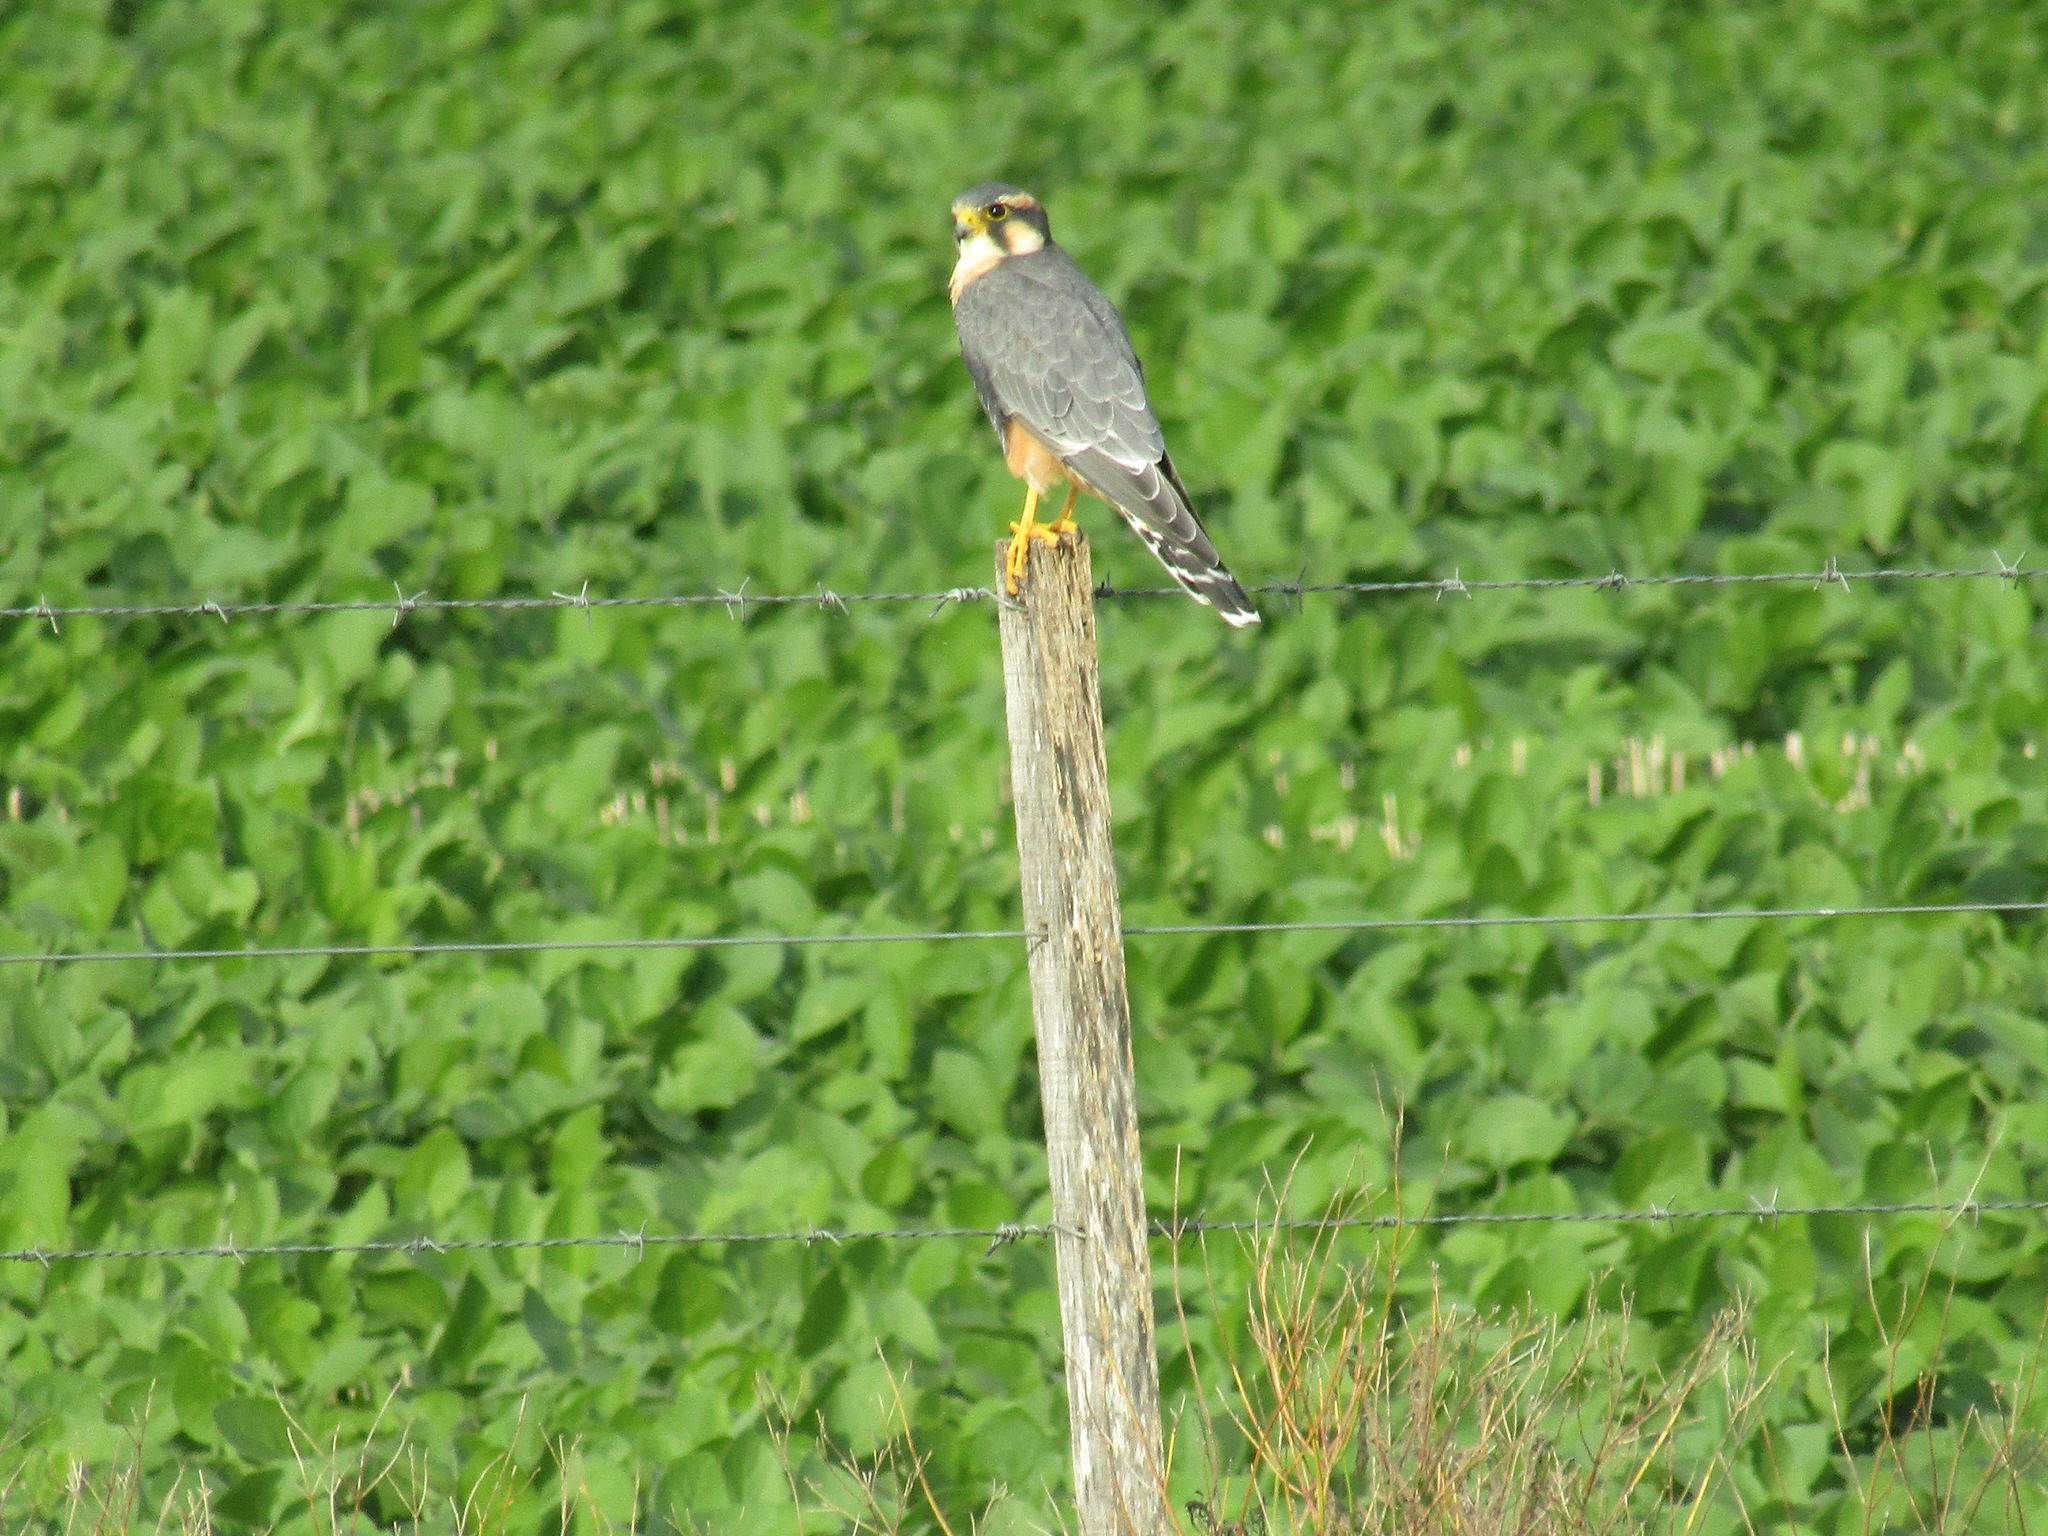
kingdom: Animalia
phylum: Chordata
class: Aves
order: Falconiformes
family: Falconidae
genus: Falco
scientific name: Falco femoralis
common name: Aplomado falcon
